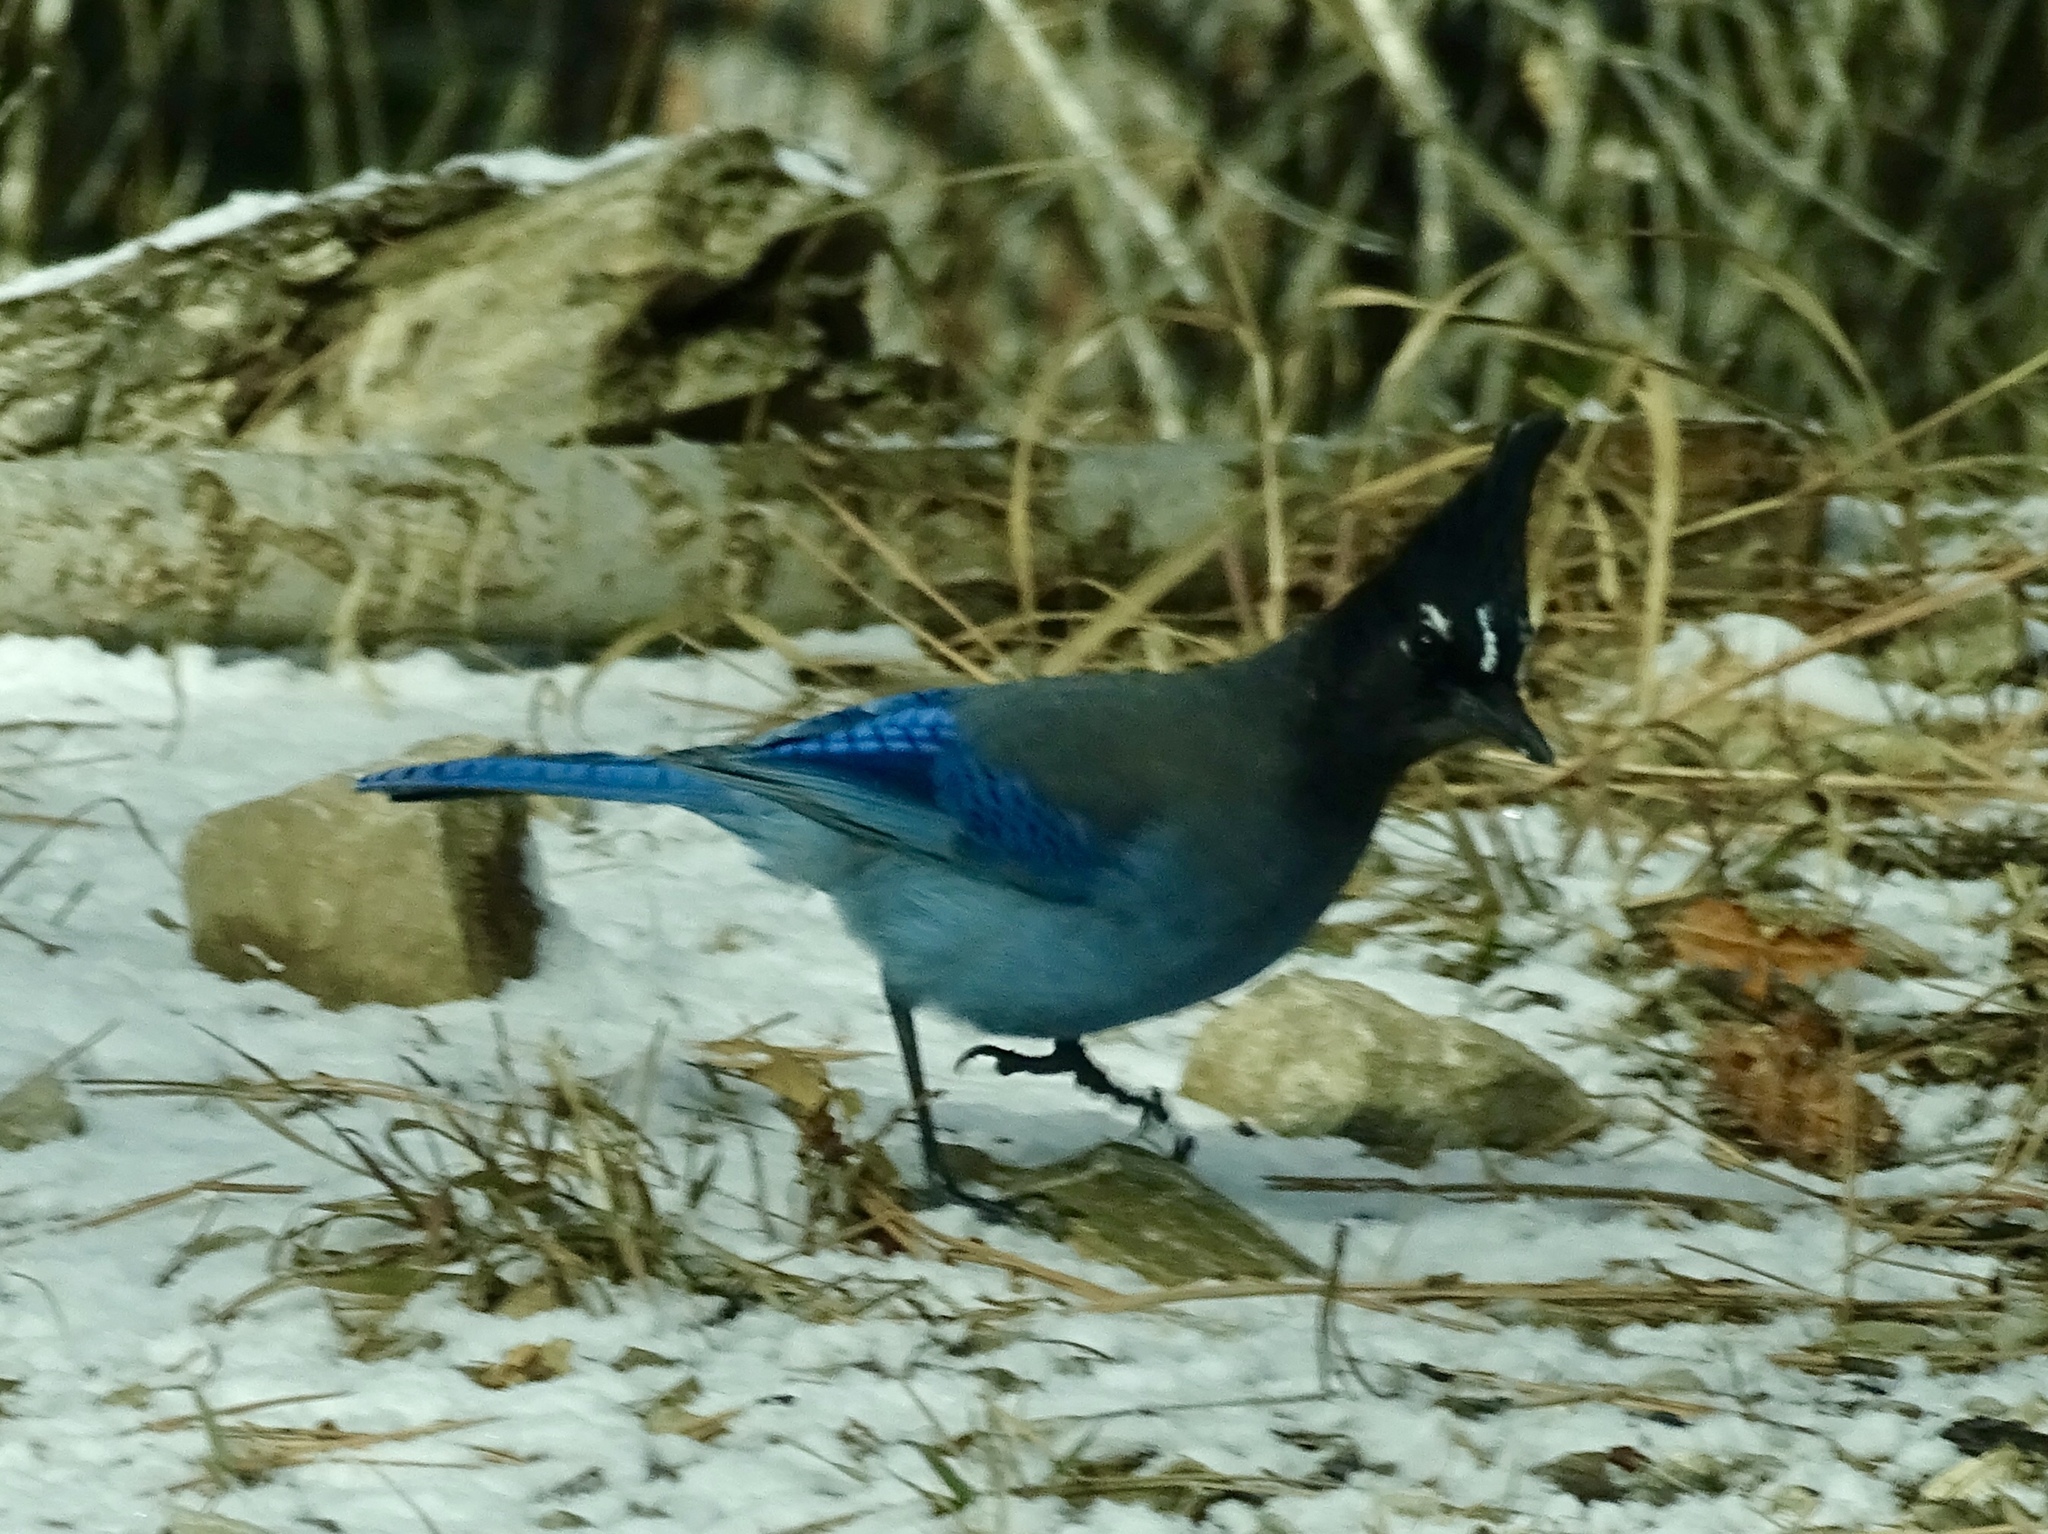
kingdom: Animalia
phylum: Chordata
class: Aves
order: Passeriformes
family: Corvidae
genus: Cyanocitta
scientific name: Cyanocitta stelleri
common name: Steller's jay
